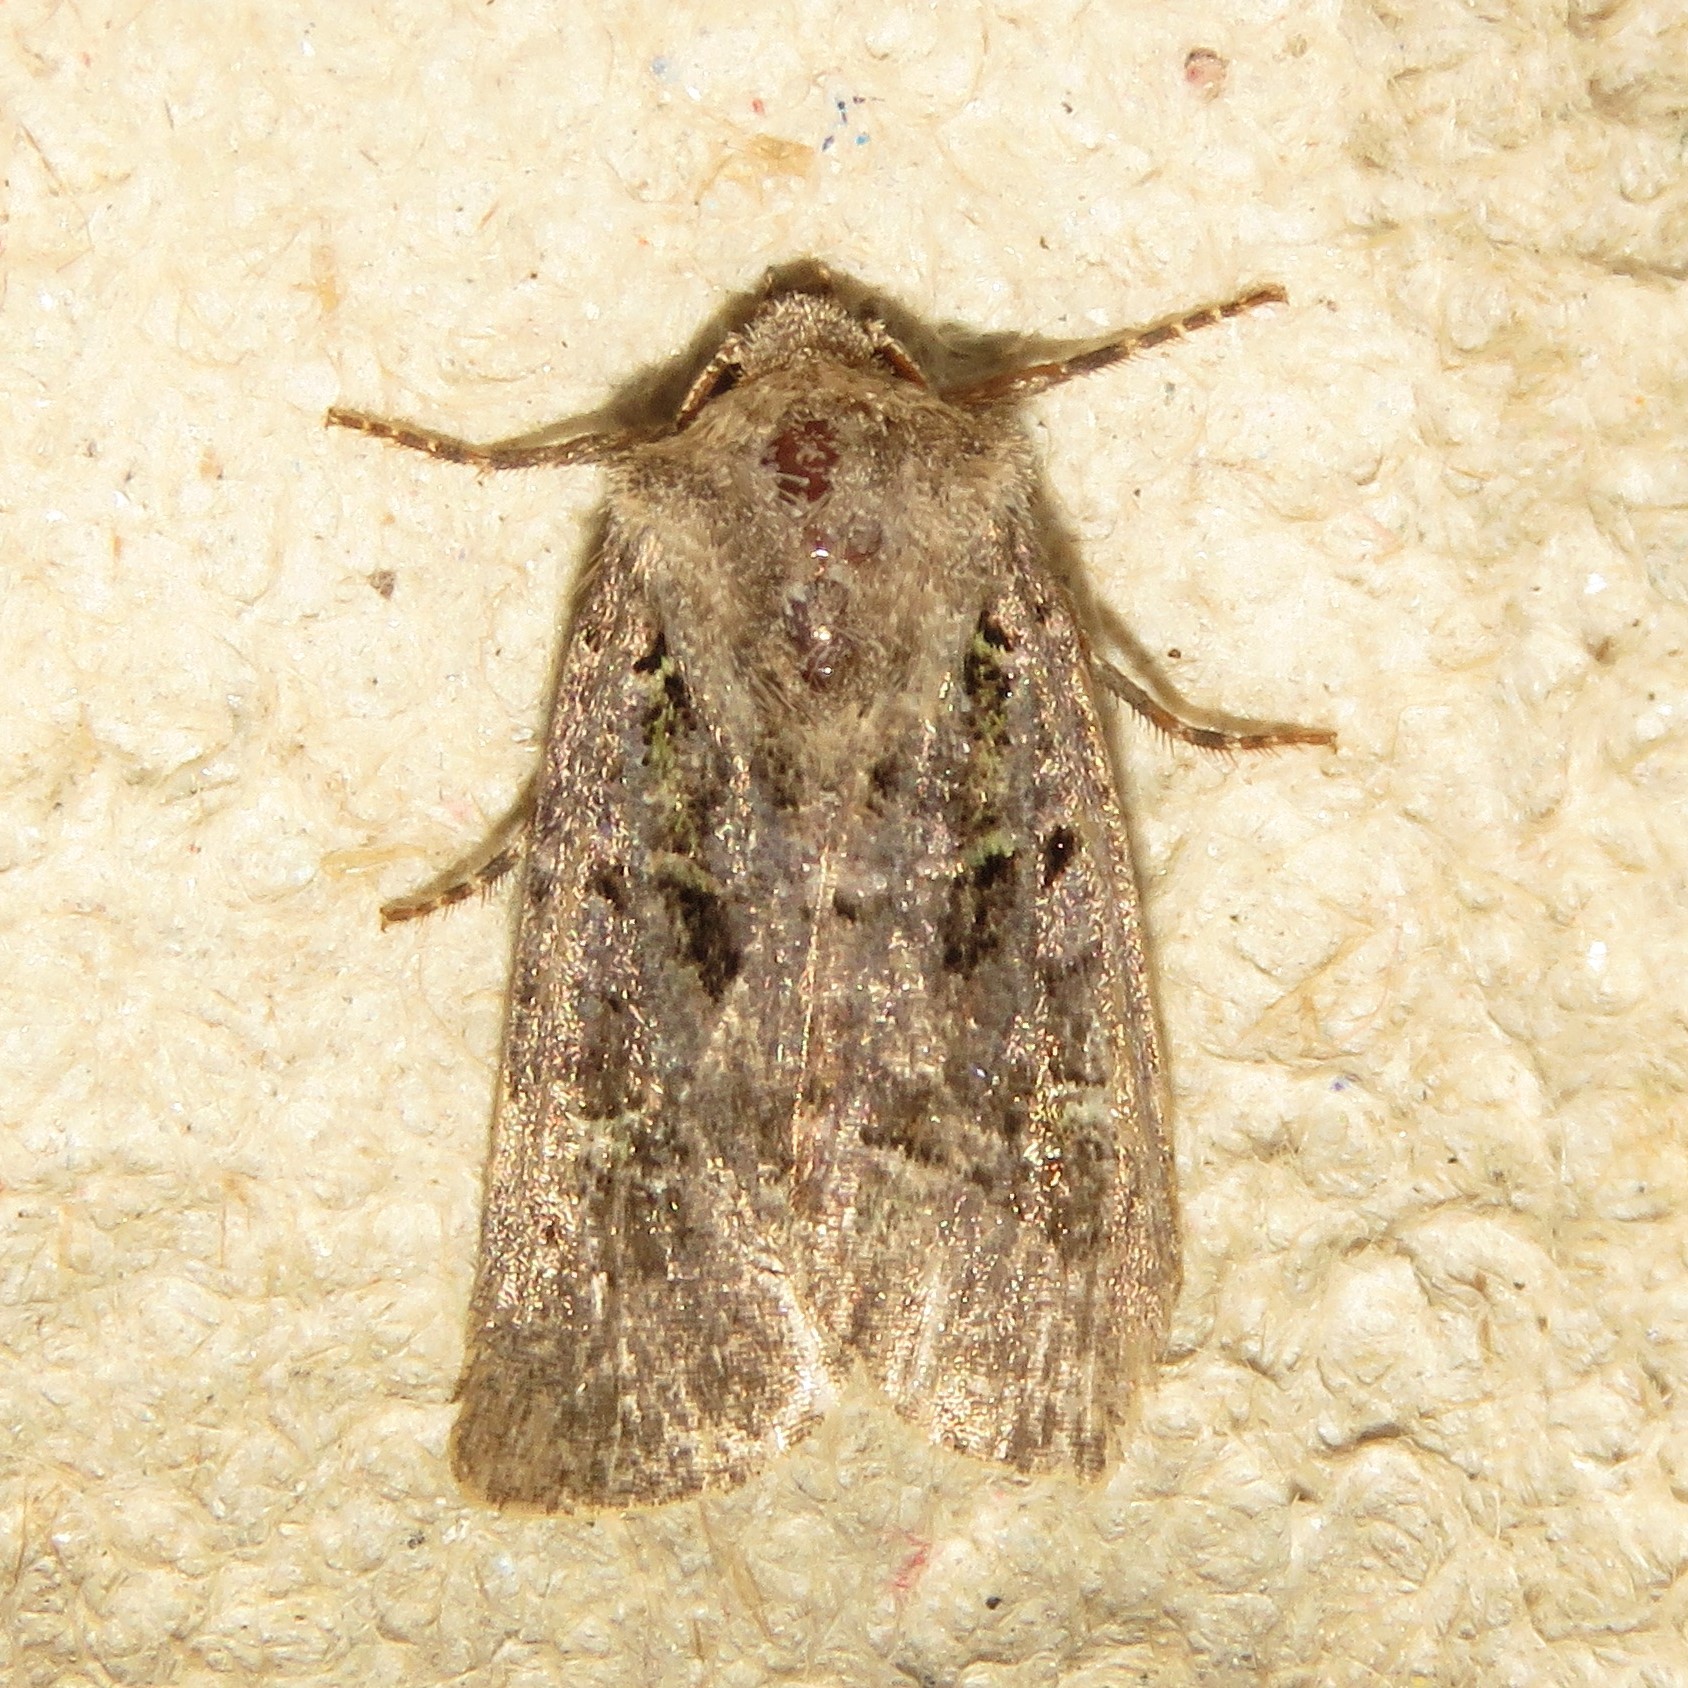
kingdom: Animalia
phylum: Arthropoda
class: Insecta
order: Lepidoptera
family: Noctuidae
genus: Lacinipolia
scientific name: Lacinipolia renigera
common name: Kidney-spotted minor
